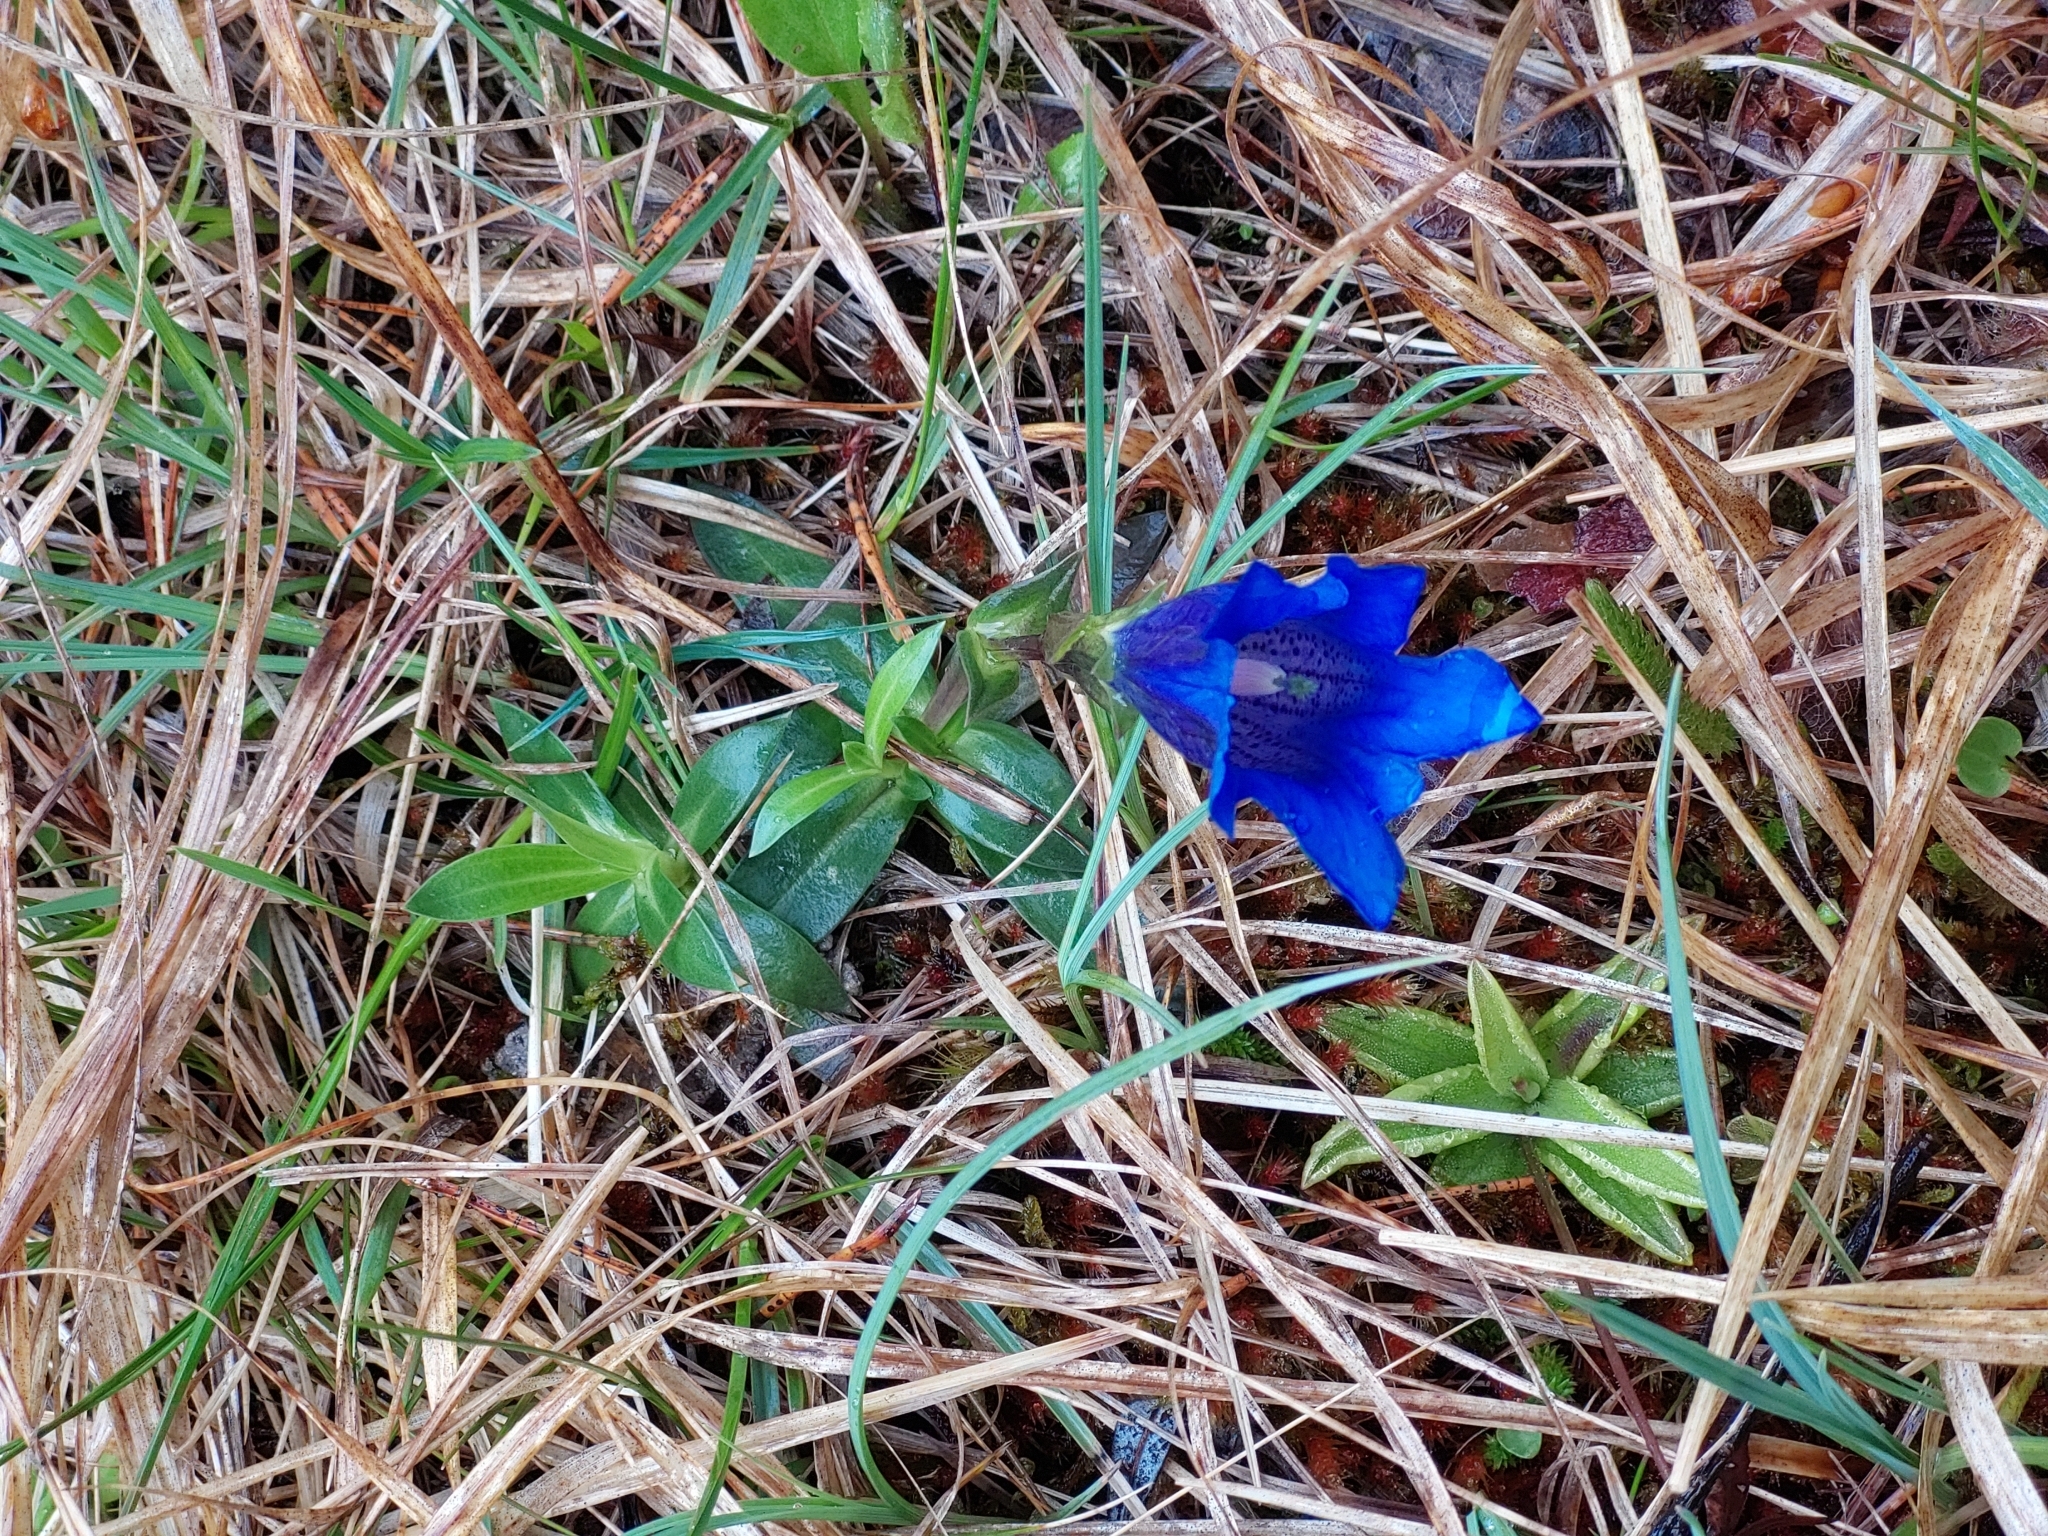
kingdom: Plantae
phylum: Tracheophyta
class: Magnoliopsida
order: Gentianales
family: Gentianaceae
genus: Gentiana
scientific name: Gentiana clusii
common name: Trumpet gentian
